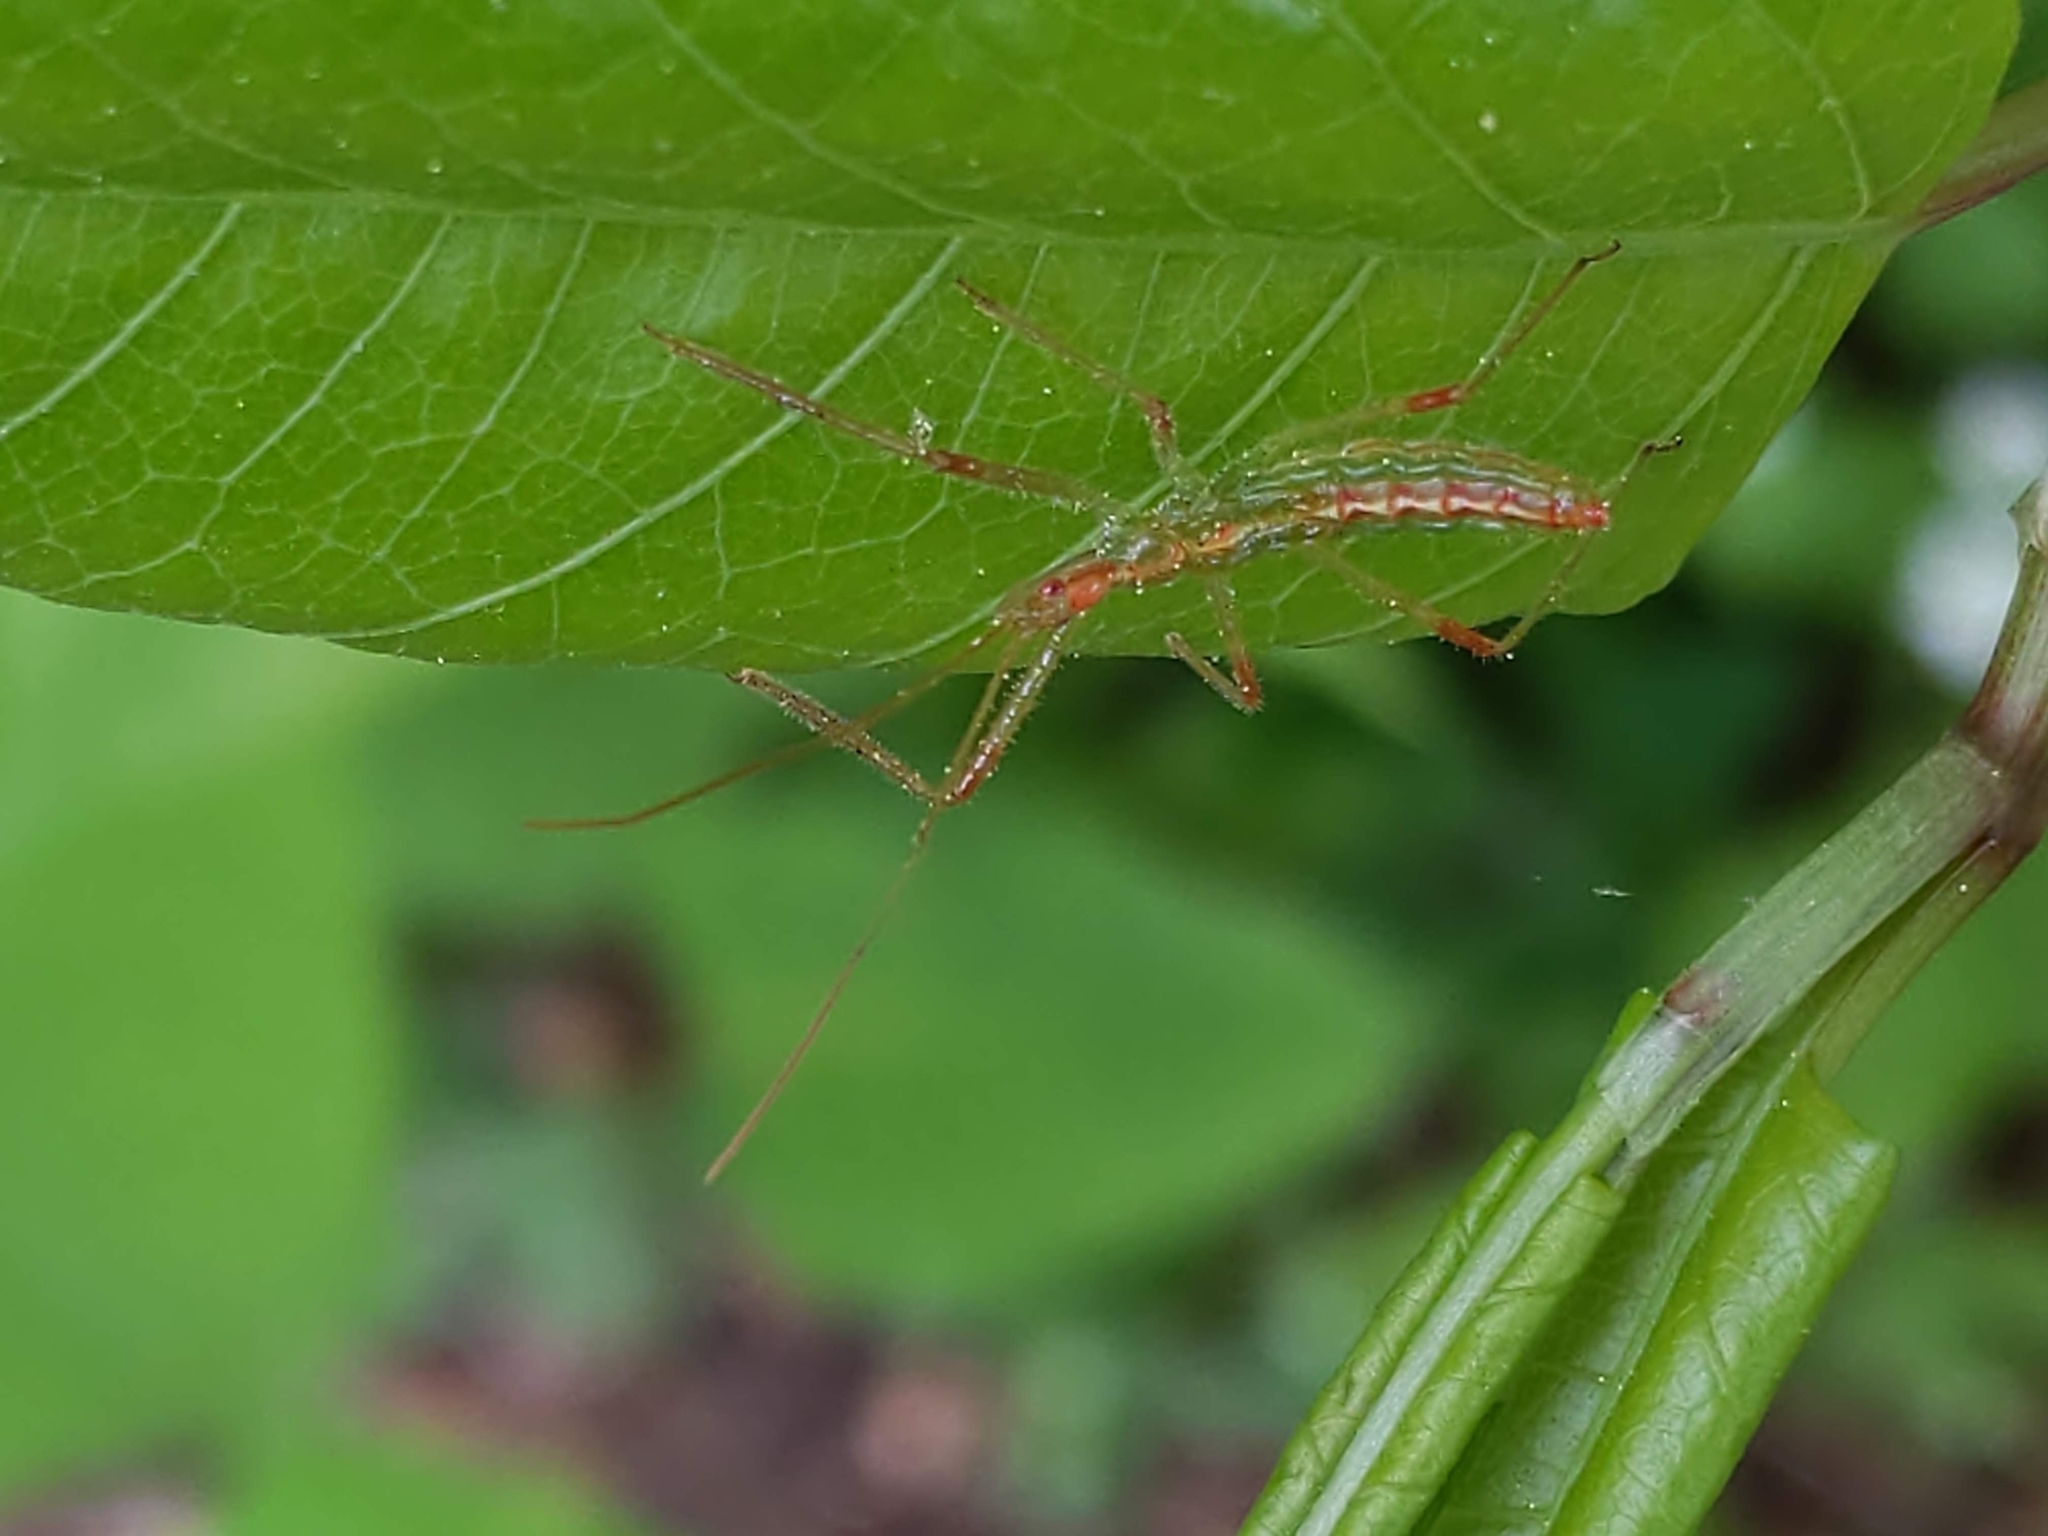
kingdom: Animalia
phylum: Arthropoda
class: Insecta
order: Hemiptera
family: Reduviidae
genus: Zelus
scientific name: Zelus luridus
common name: Pale green assassin bug
